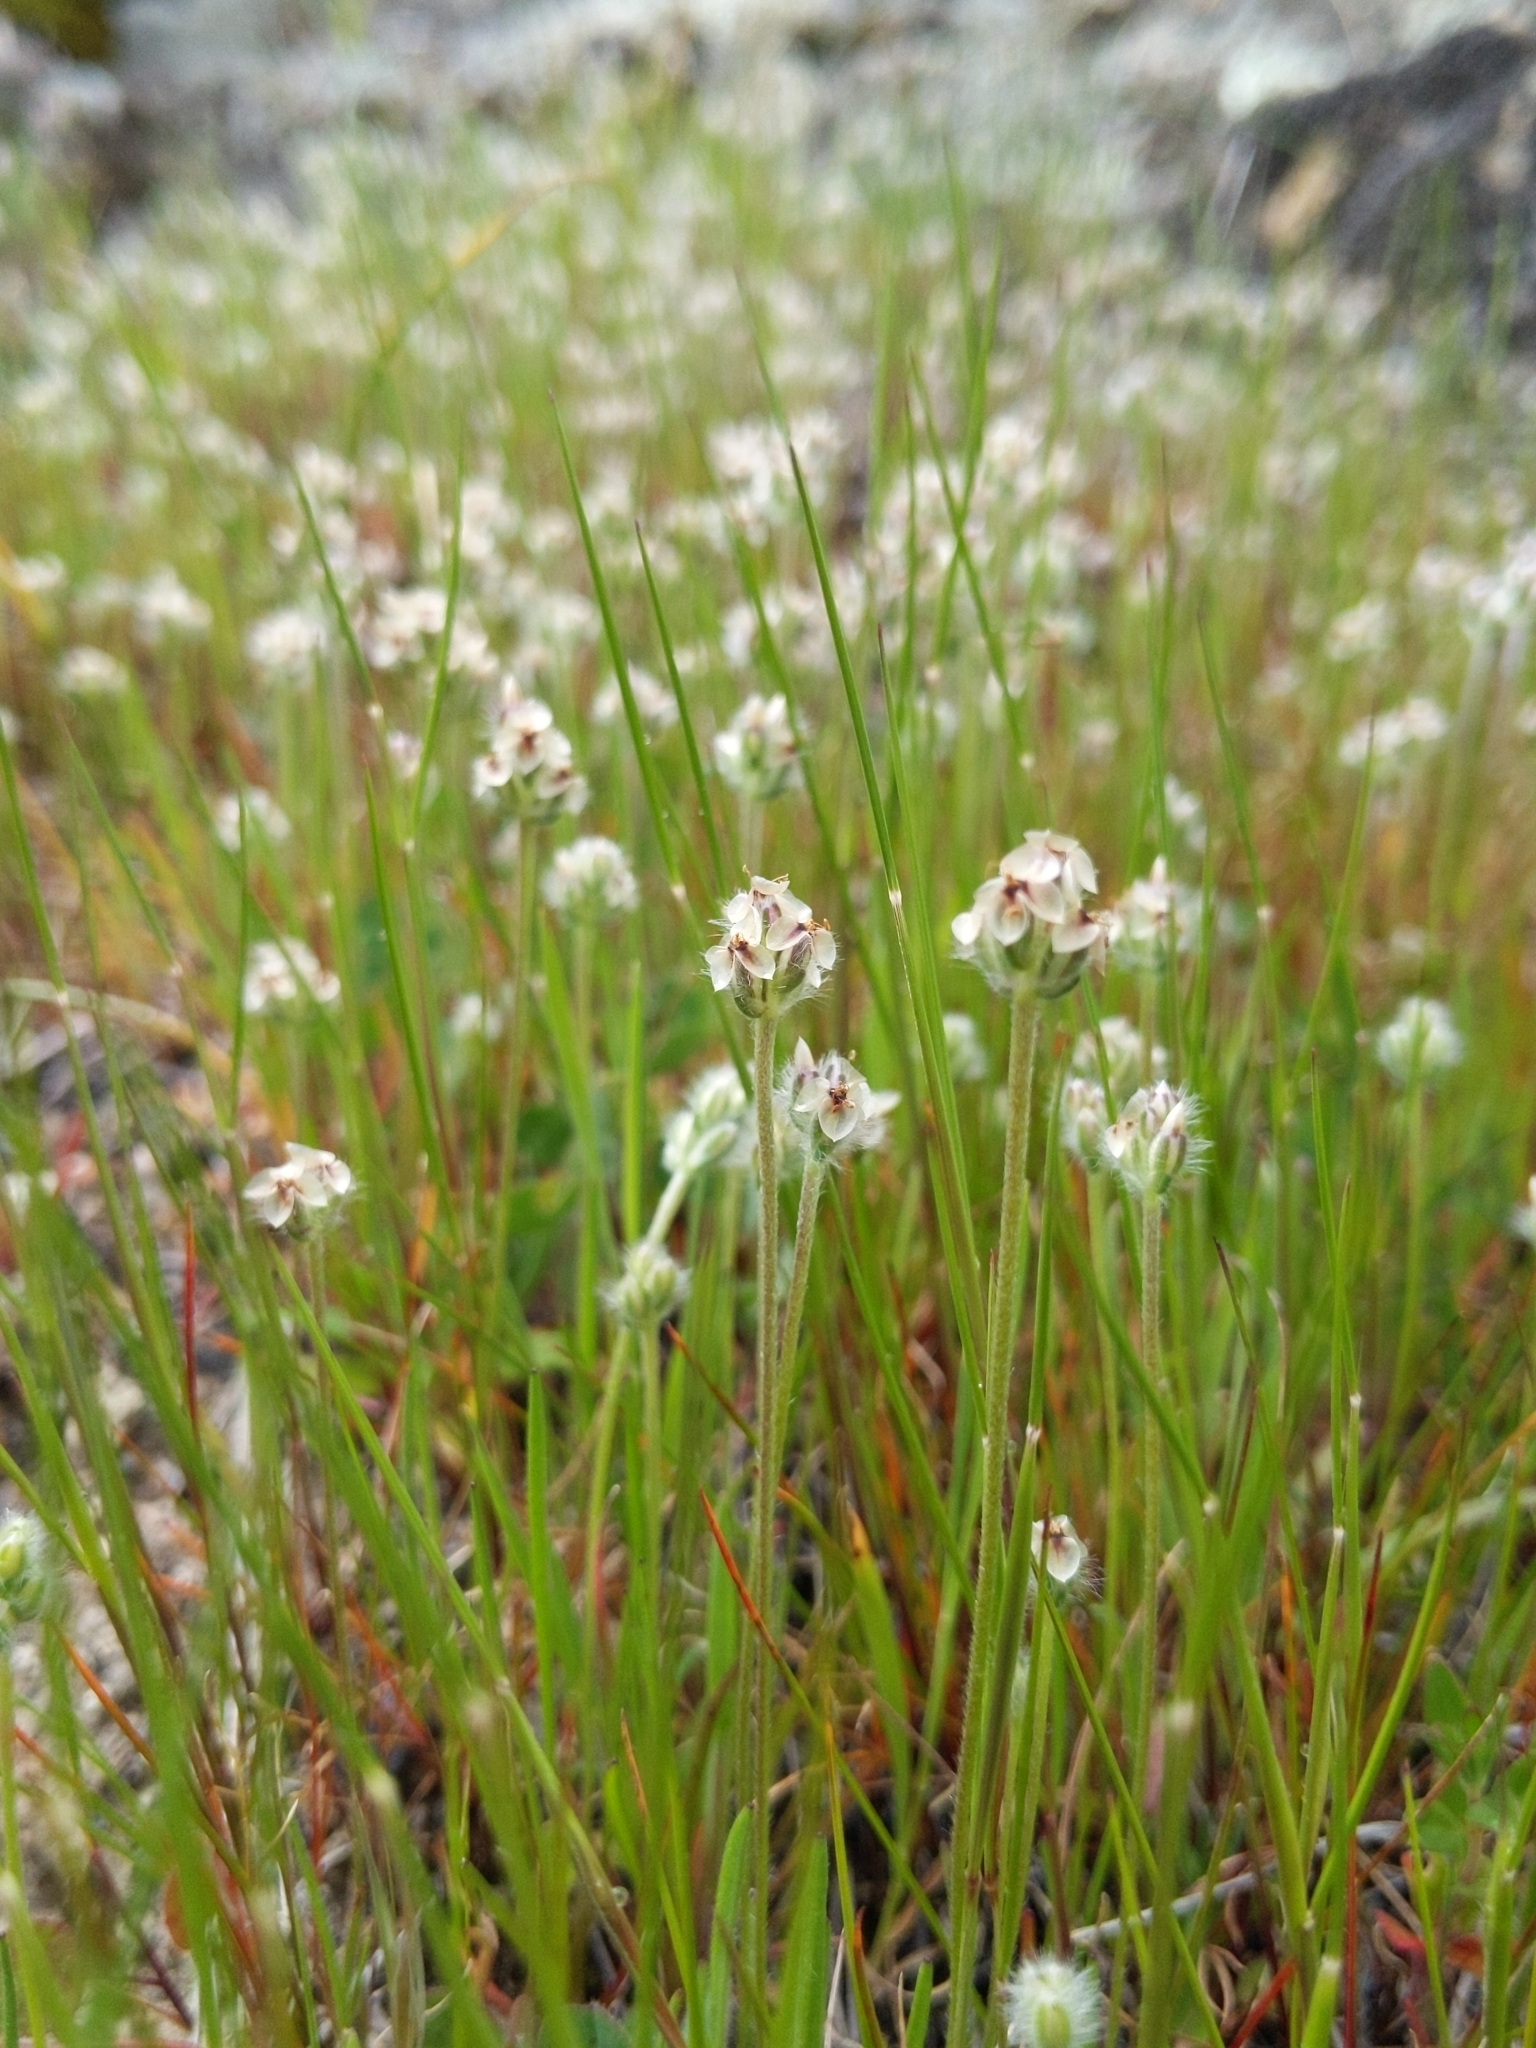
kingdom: Plantae
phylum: Tracheophyta
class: Magnoliopsida
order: Lamiales
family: Plantaginaceae
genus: Plantago
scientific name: Plantago erecta
